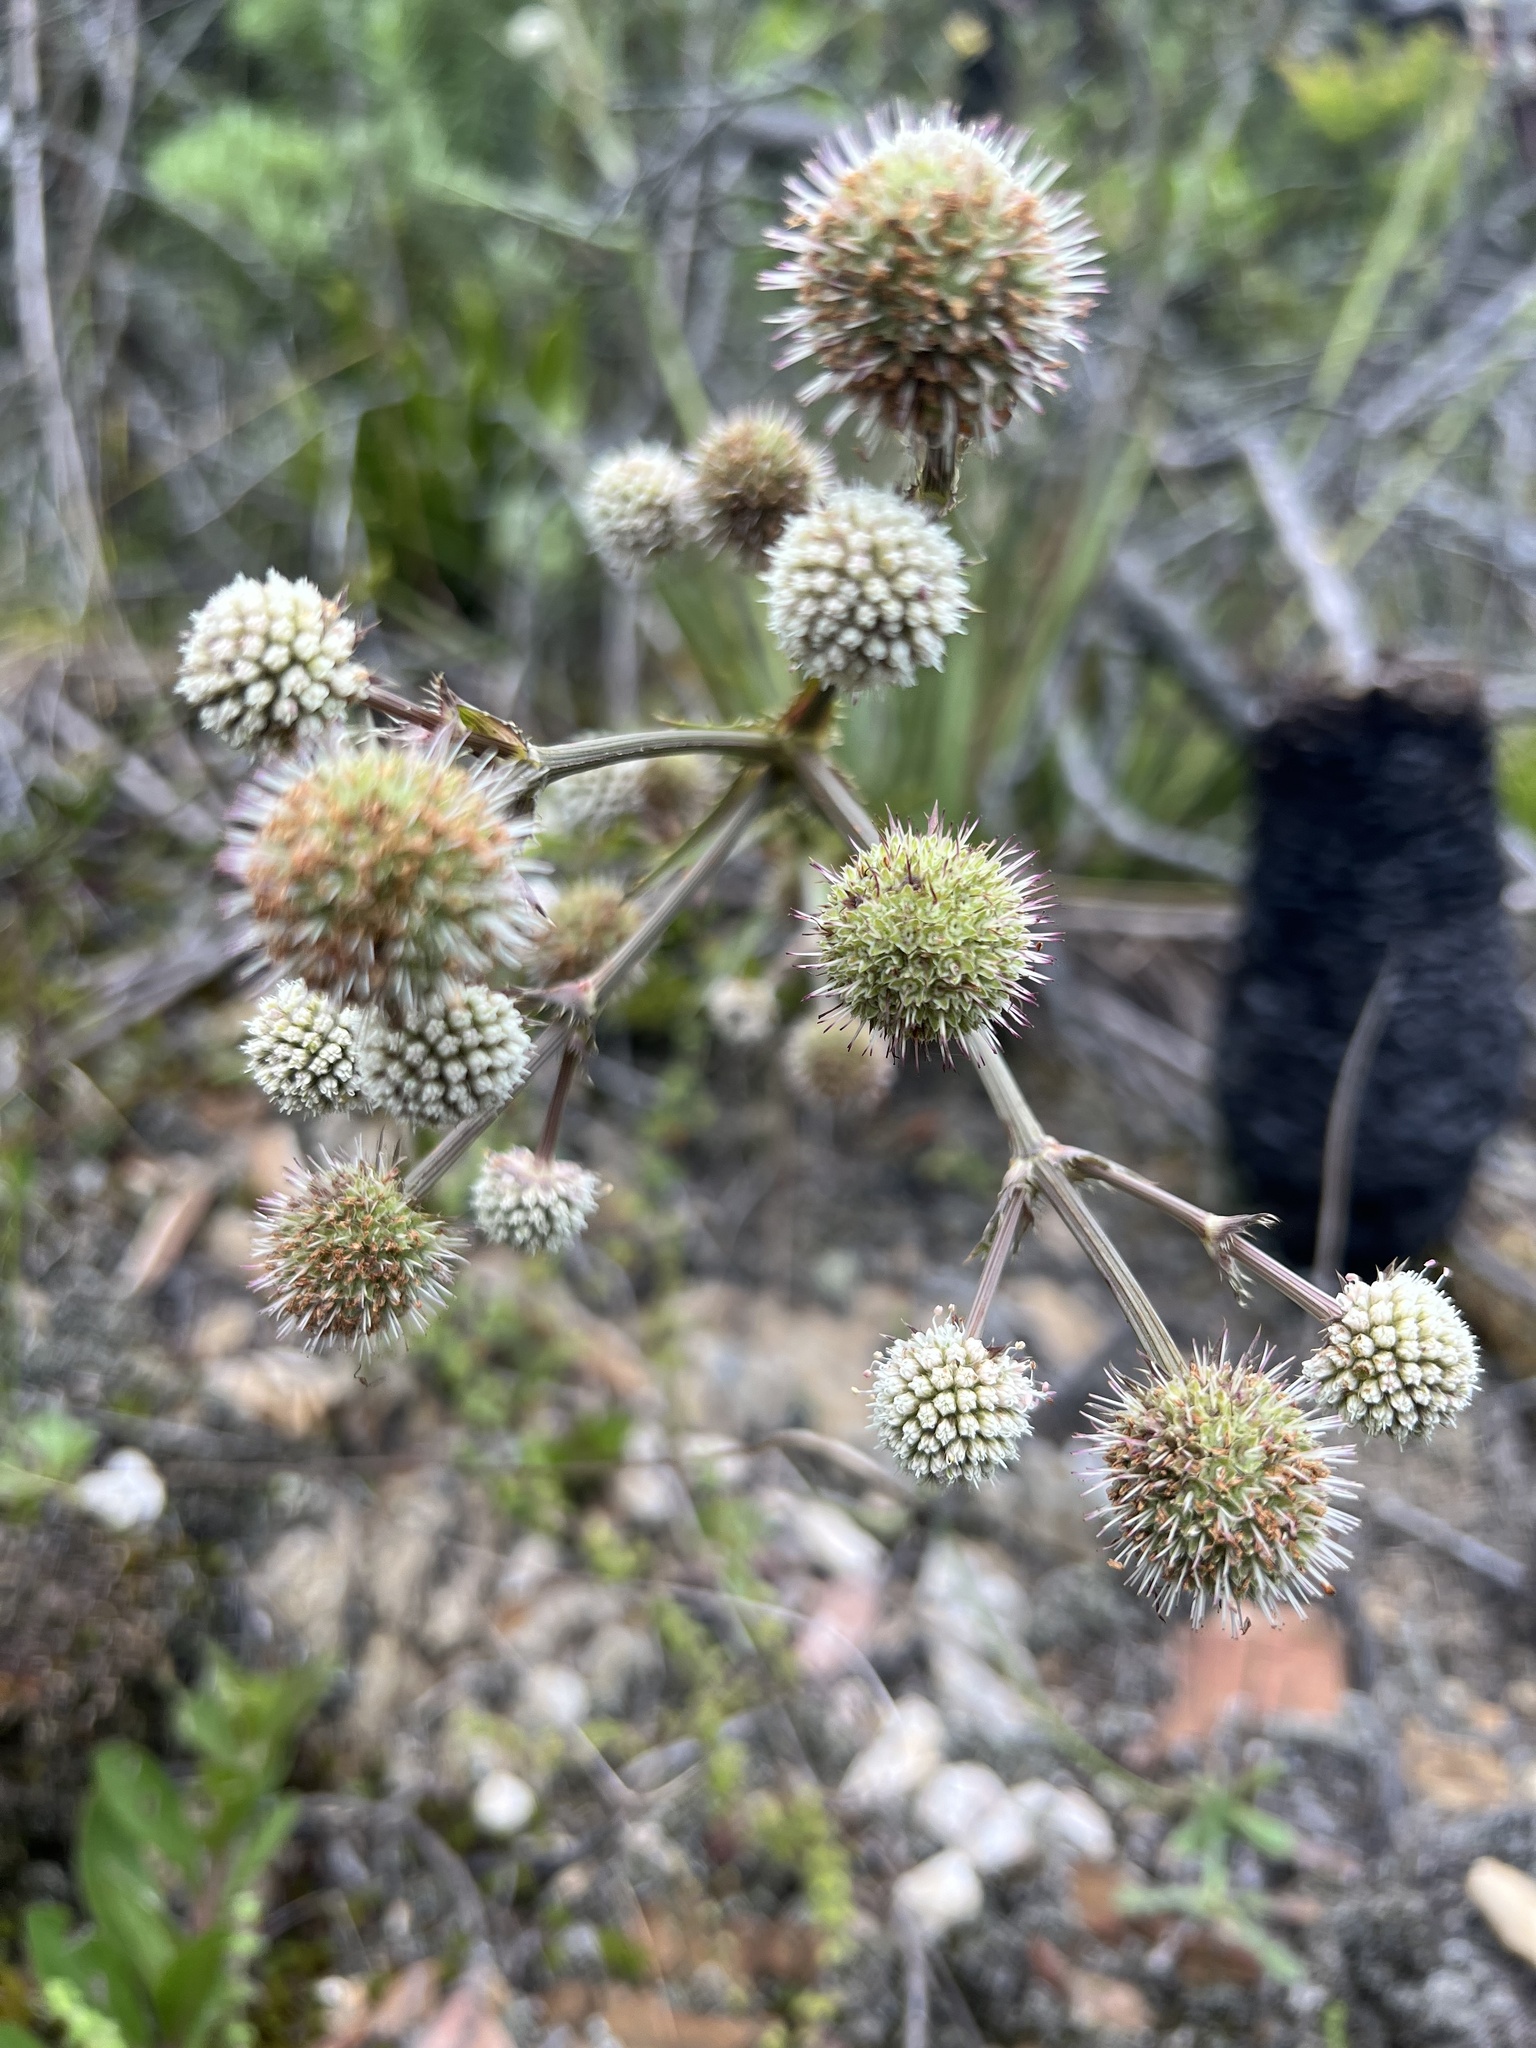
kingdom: Plantae
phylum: Tracheophyta
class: Magnoliopsida
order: Apiales
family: Apiaceae
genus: Eryngium
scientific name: Eryngium humboldtii
